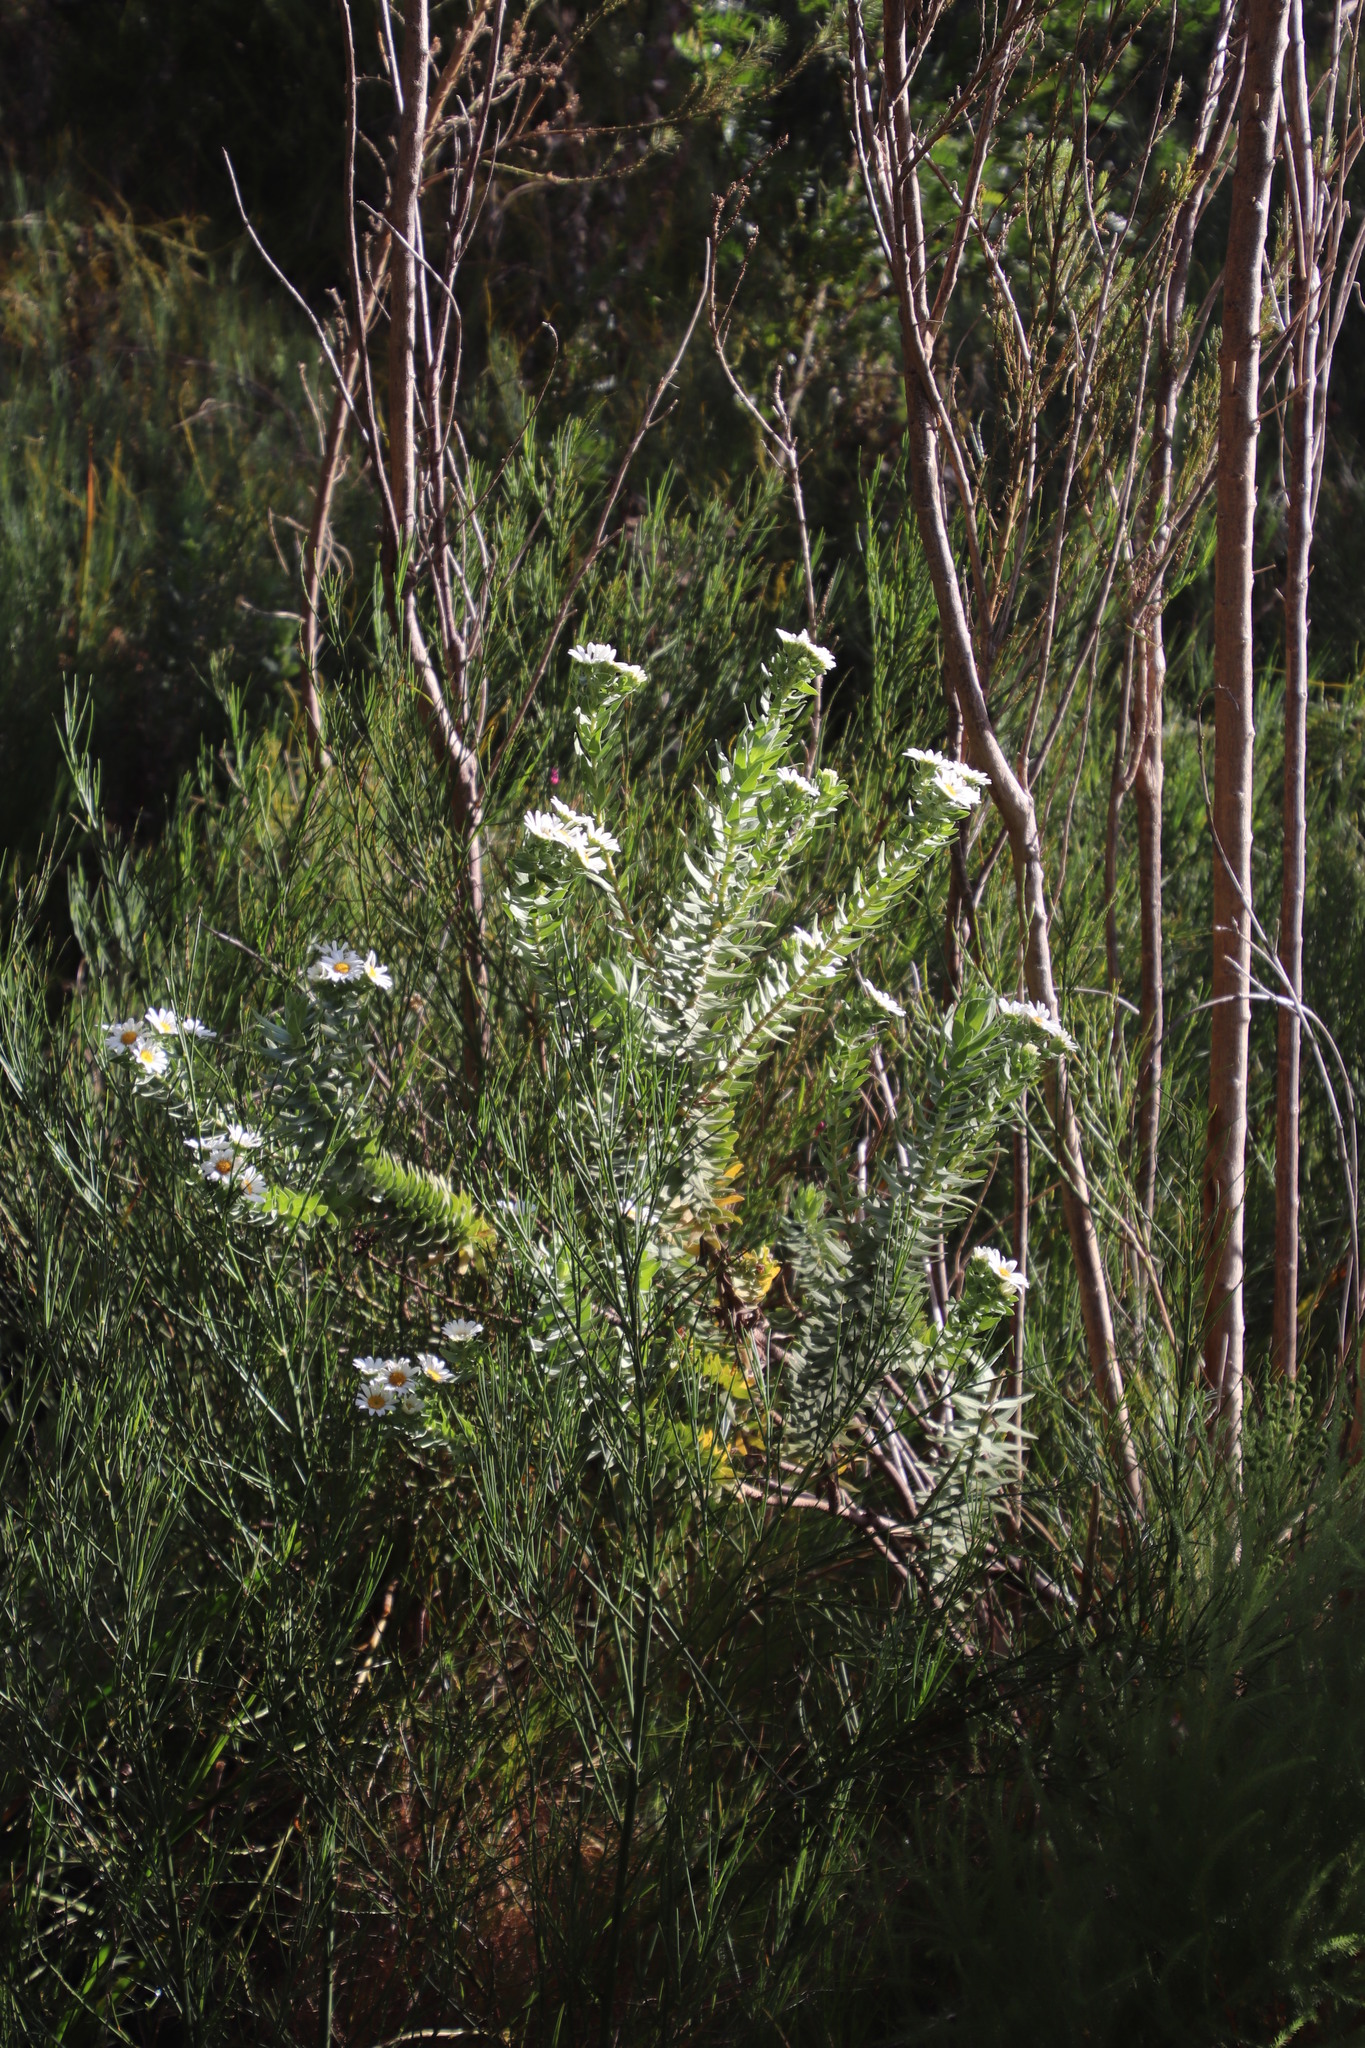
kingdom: Plantae
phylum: Tracheophyta
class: Magnoliopsida
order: Asterales
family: Asteraceae
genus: Osmitopsis
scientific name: Osmitopsis asteriscoides
